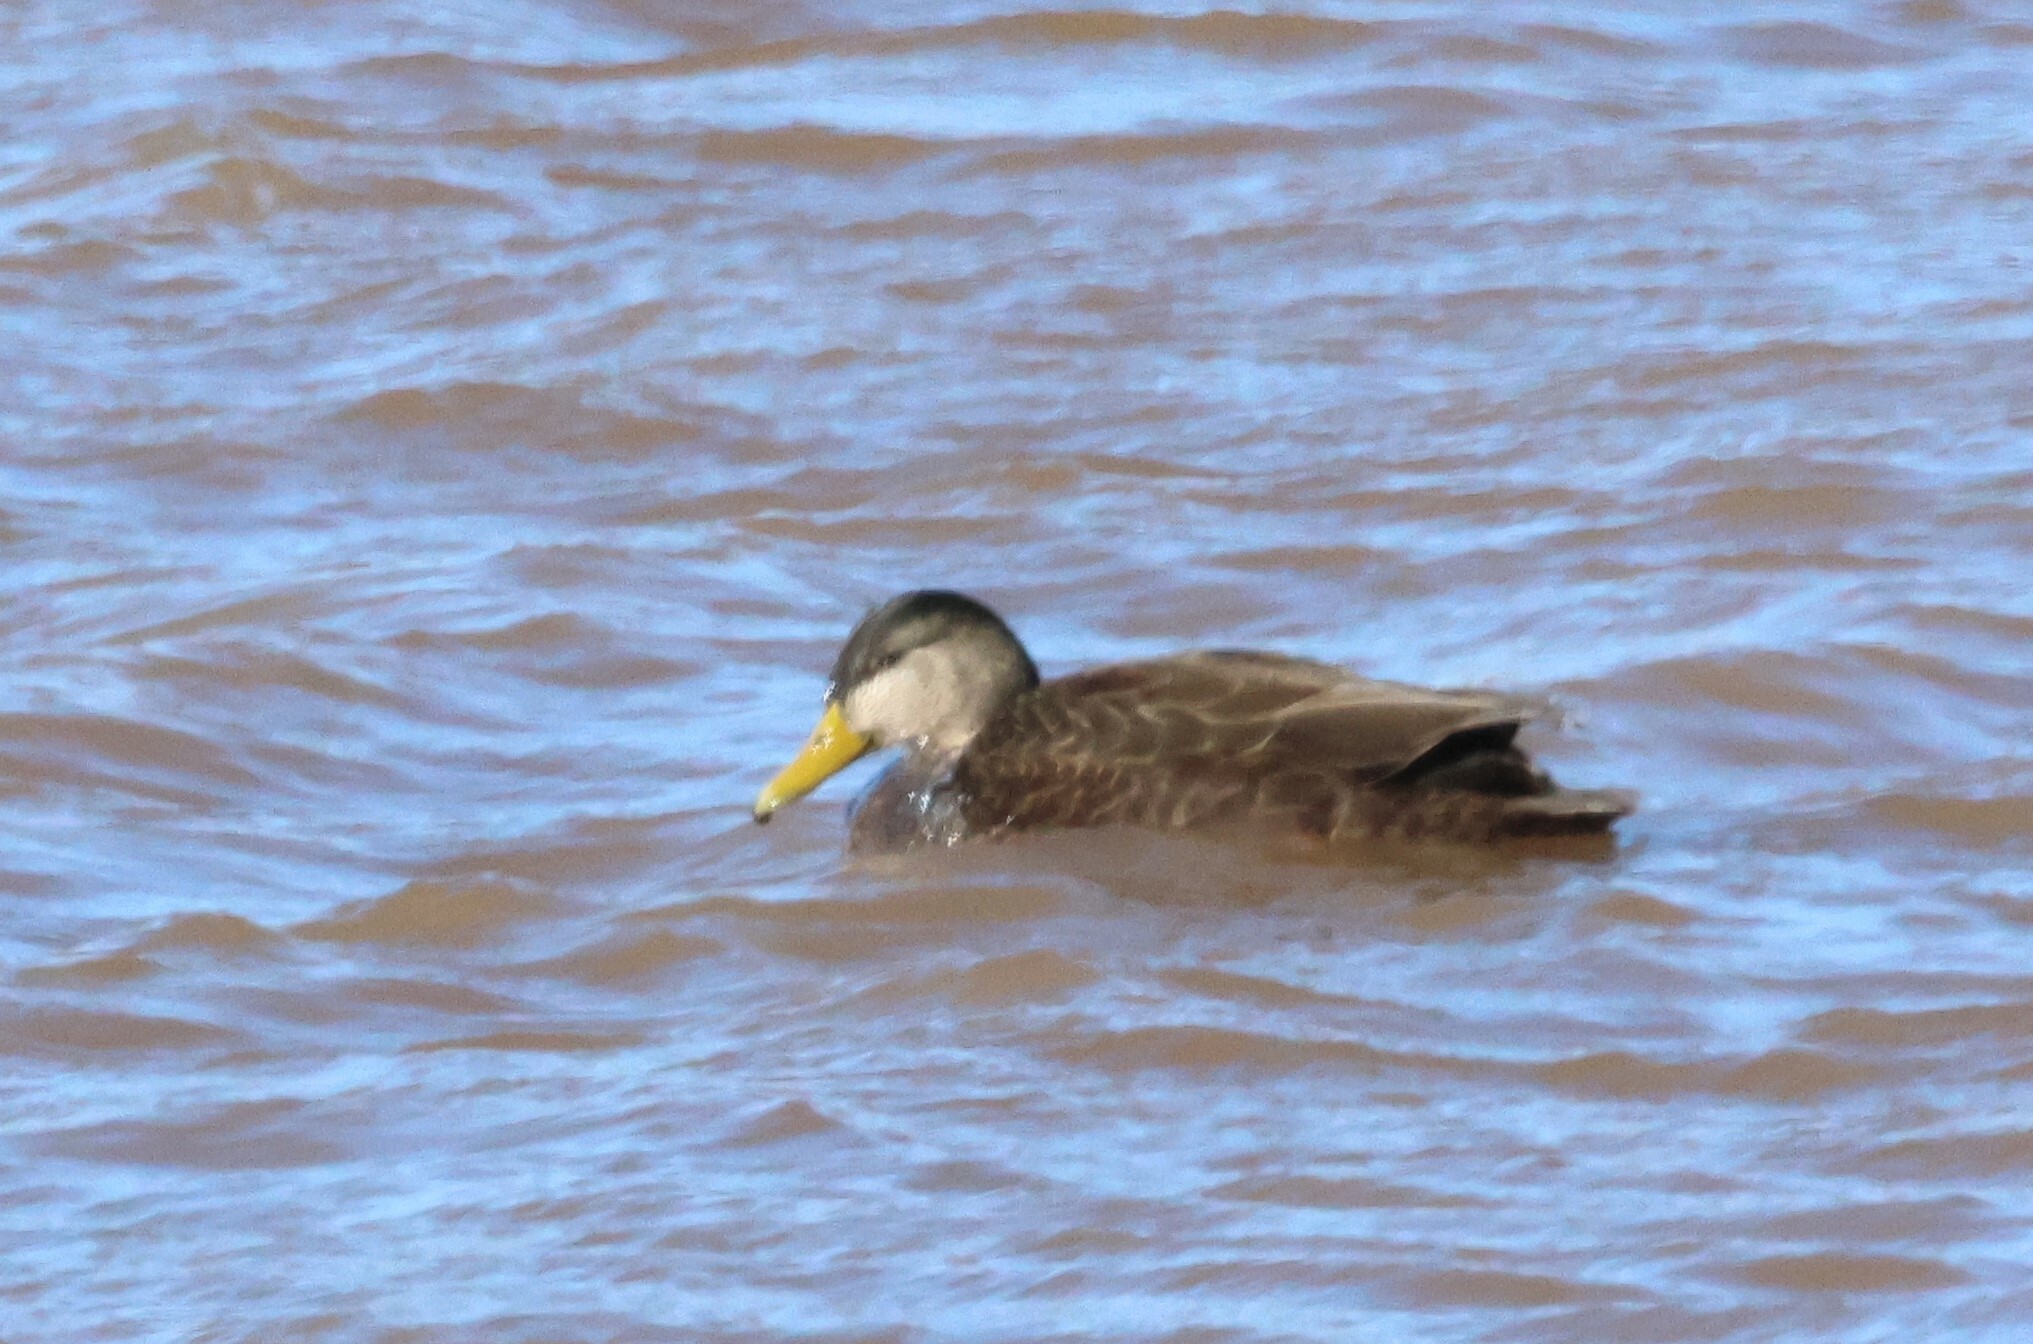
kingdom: Animalia
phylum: Chordata
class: Aves
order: Anseriformes
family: Anatidae
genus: Anas
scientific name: Anas rubripes
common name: American black duck
